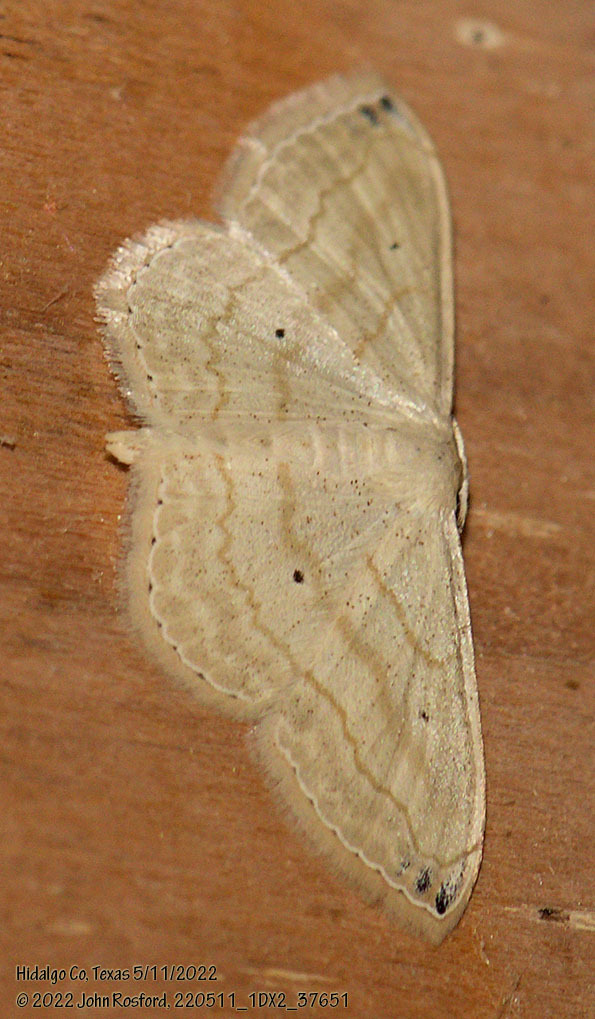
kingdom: Animalia
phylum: Arthropoda
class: Insecta
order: Lepidoptera
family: Geometridae
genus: Scopula
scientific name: Scopula umbilicata
